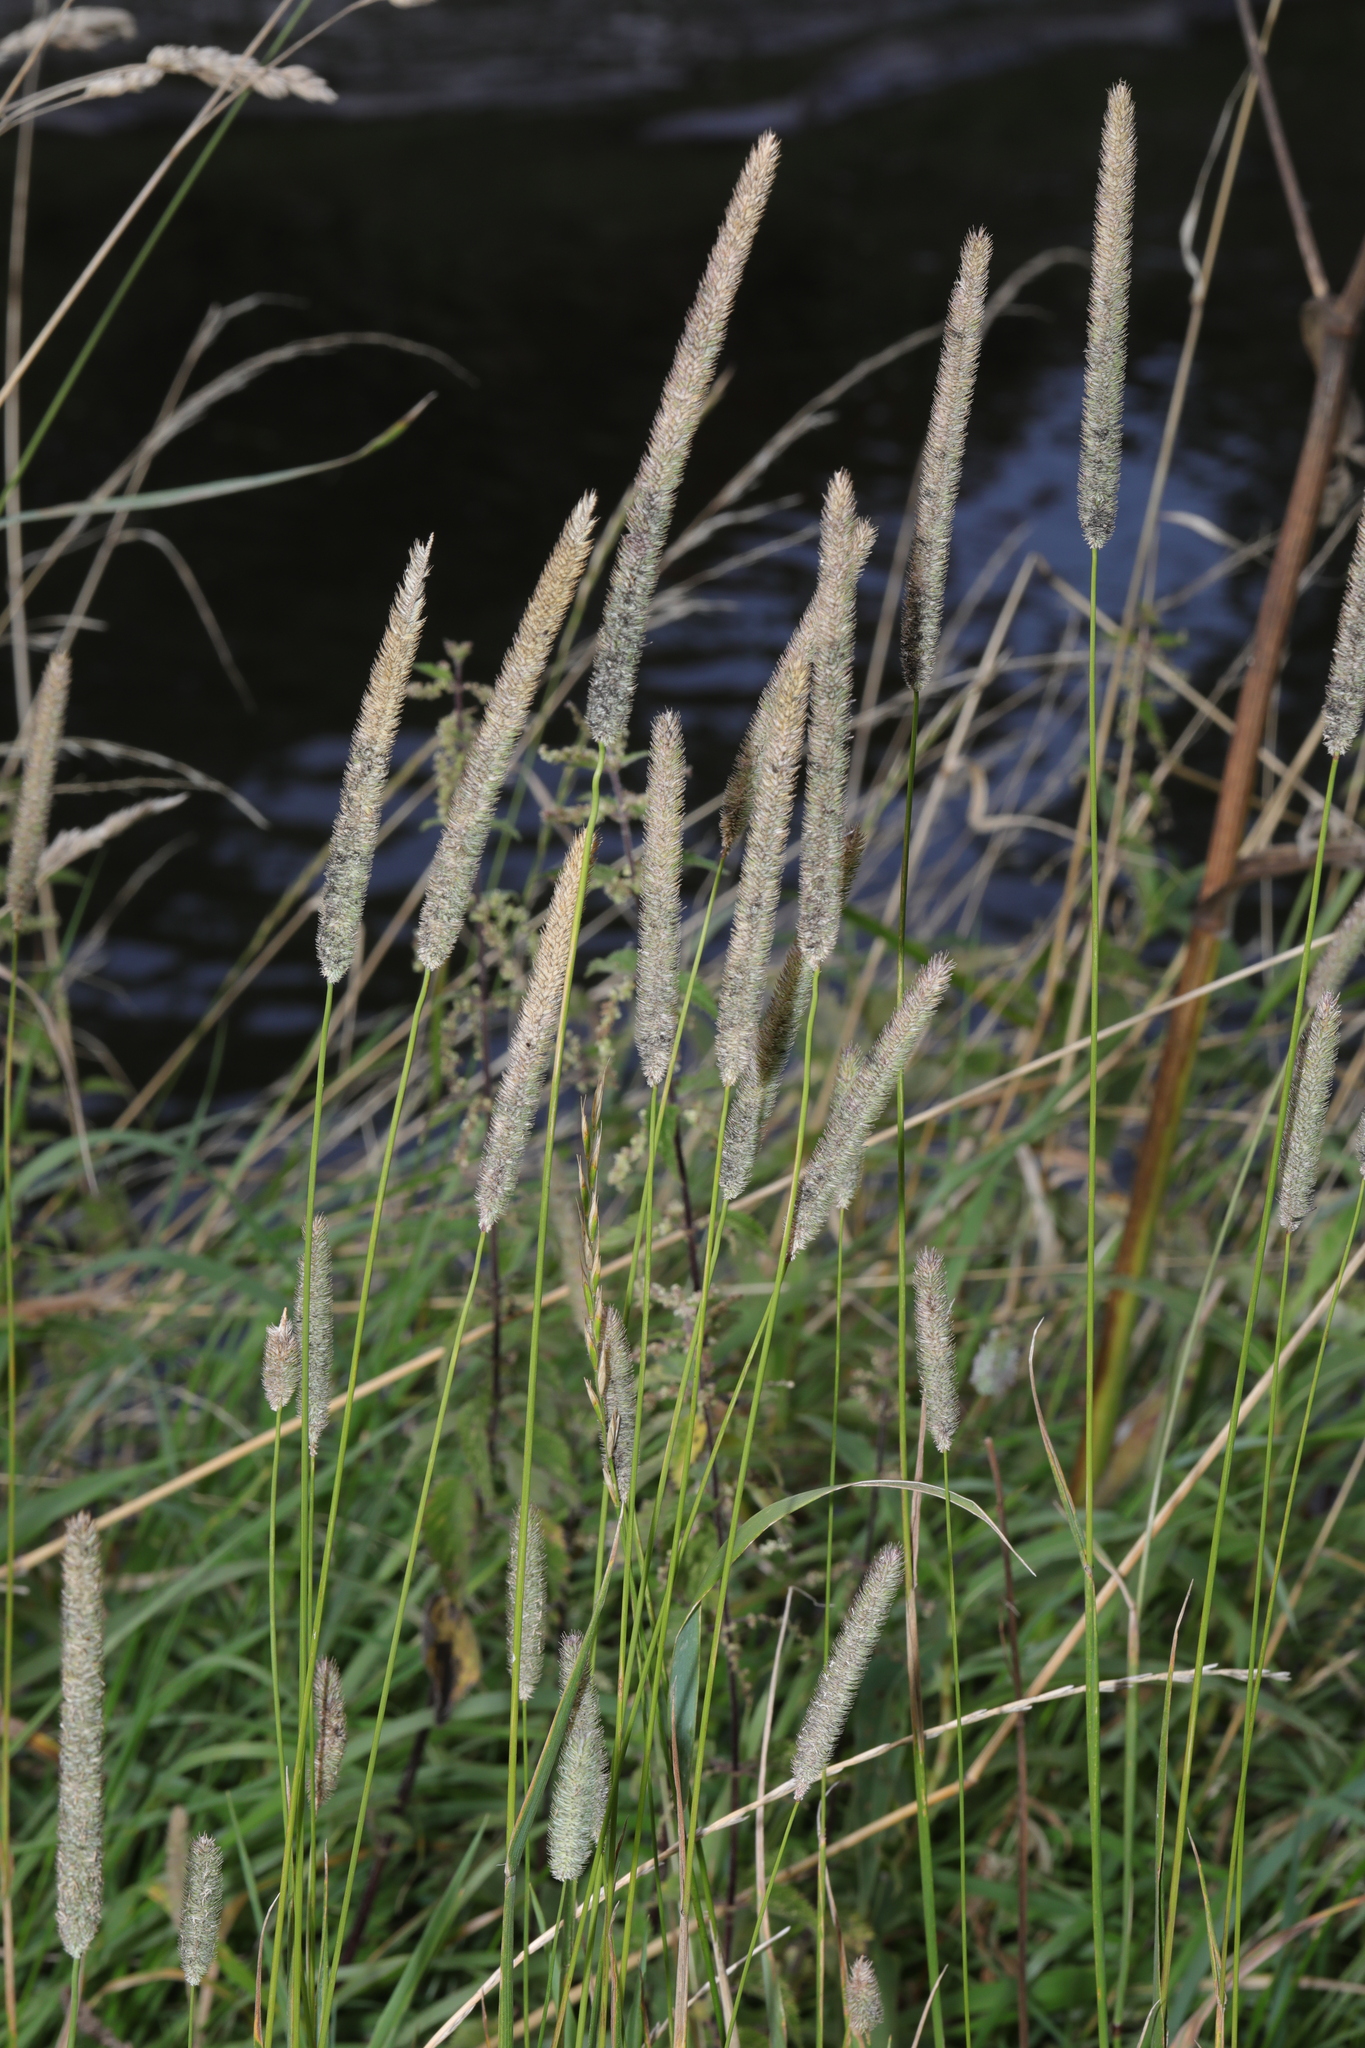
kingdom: Plantae
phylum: Tracheophyta
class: Liliopsida
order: Poales
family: Poaceae
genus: Phleum
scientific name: Phleum pratense
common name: Timothy grass
